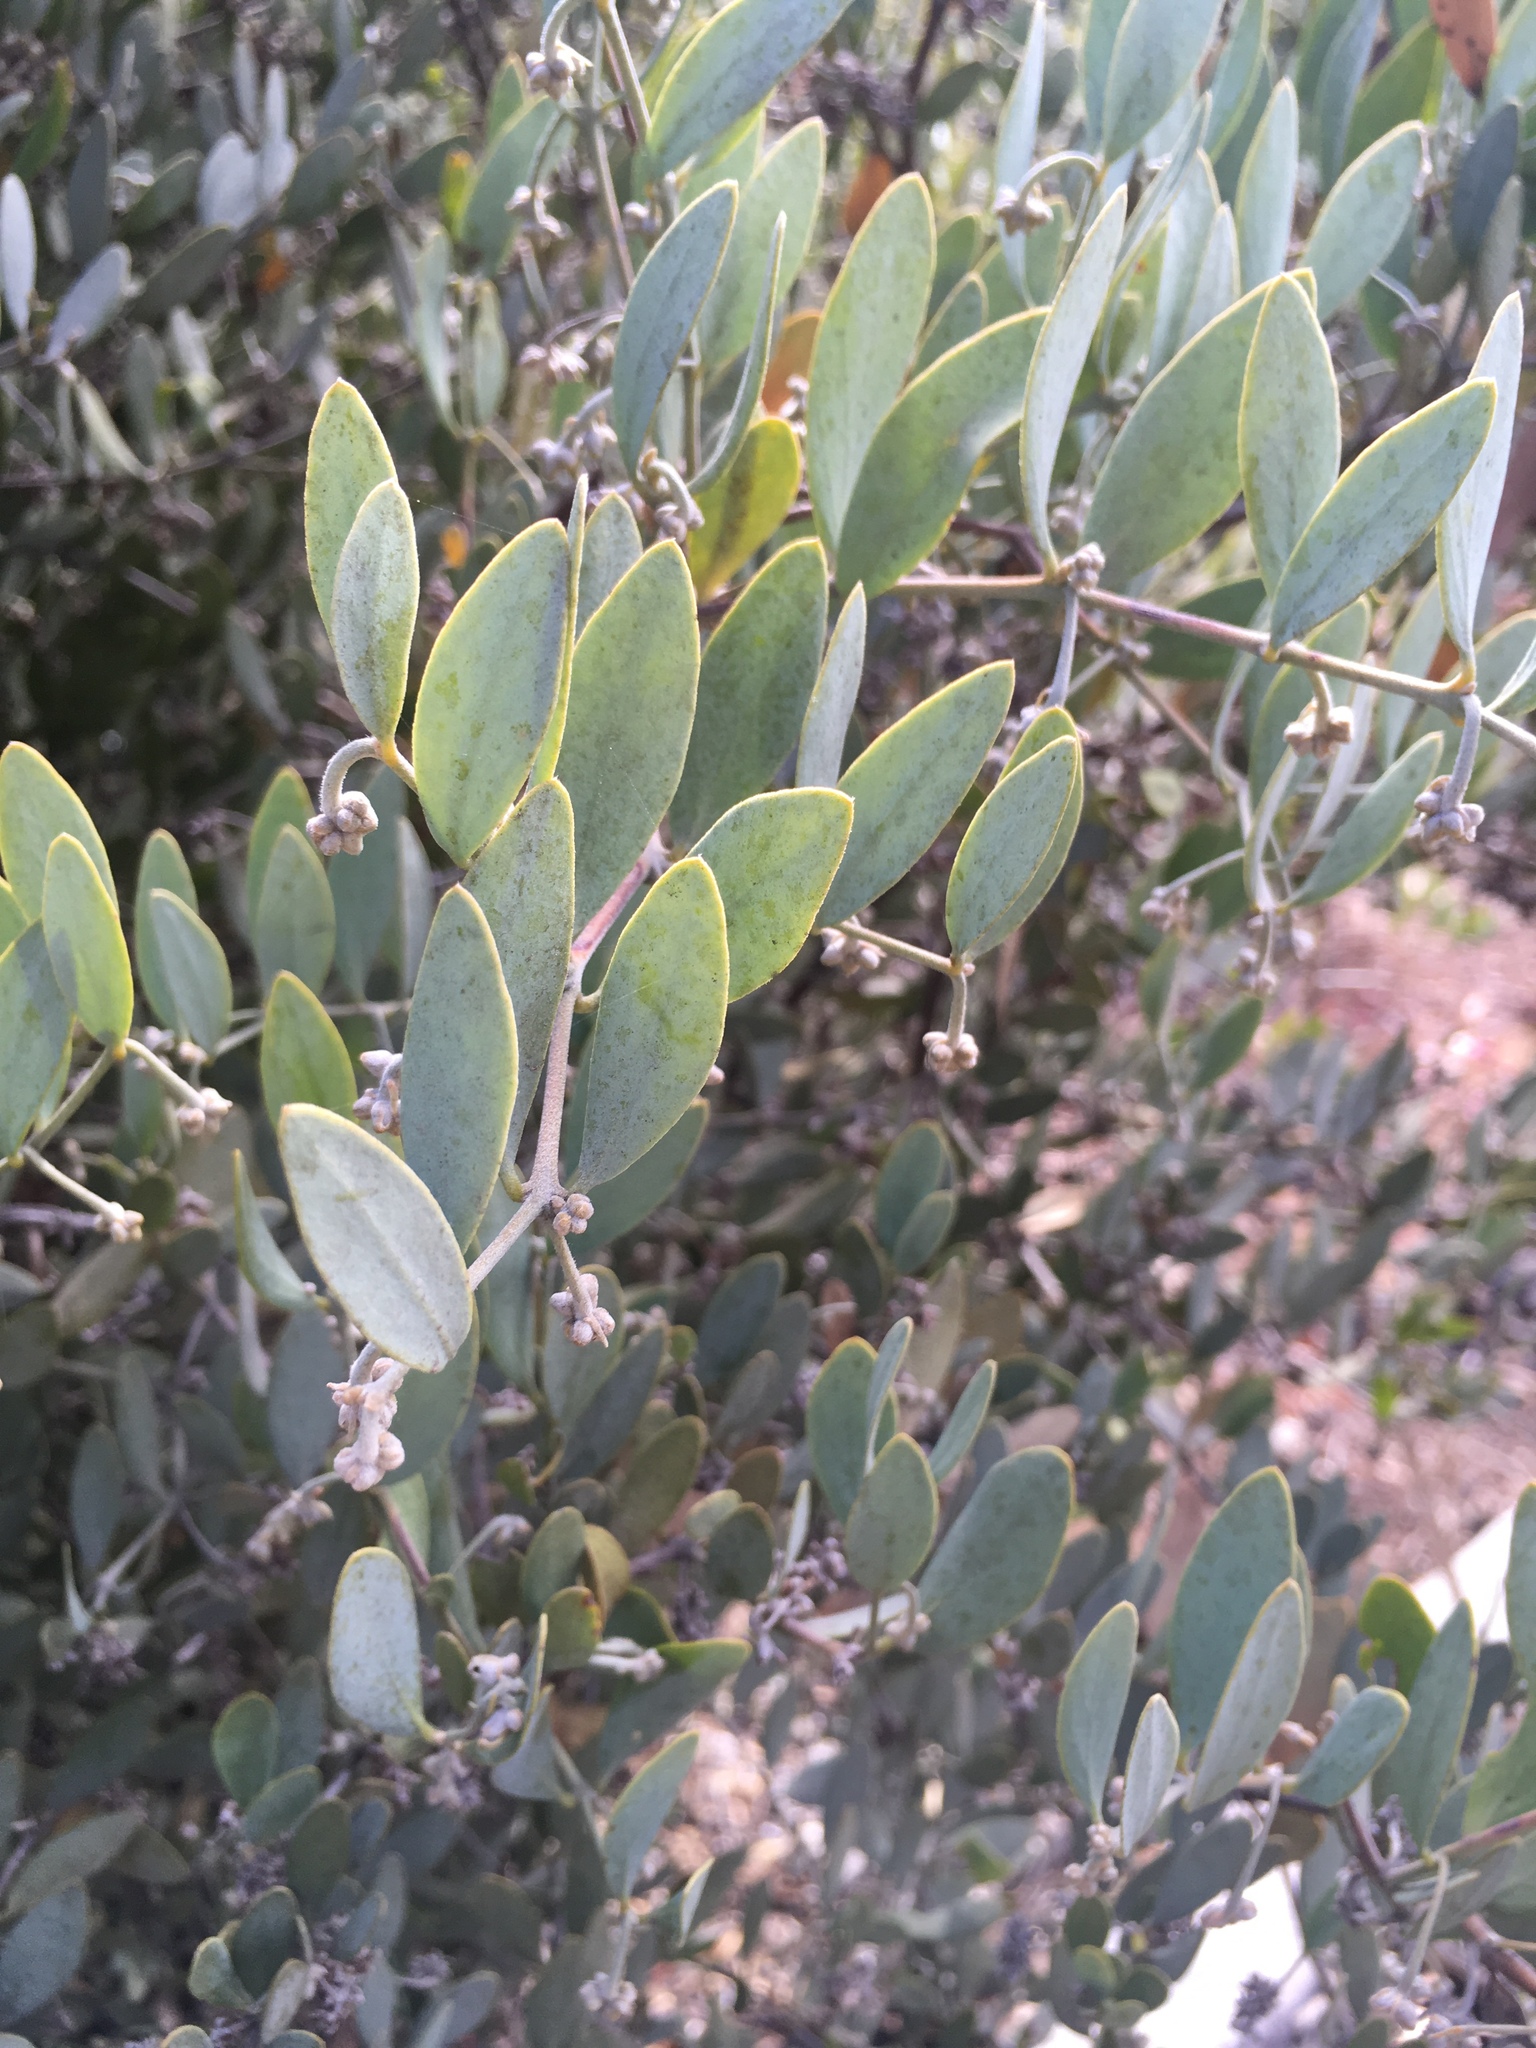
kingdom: Plantae
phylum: Tracheophyta
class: Magnoliopsida
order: Caryophyllales
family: Simmondsiaceae
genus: Simmondsia
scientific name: Simmondsia chinensis
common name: Jojoba
